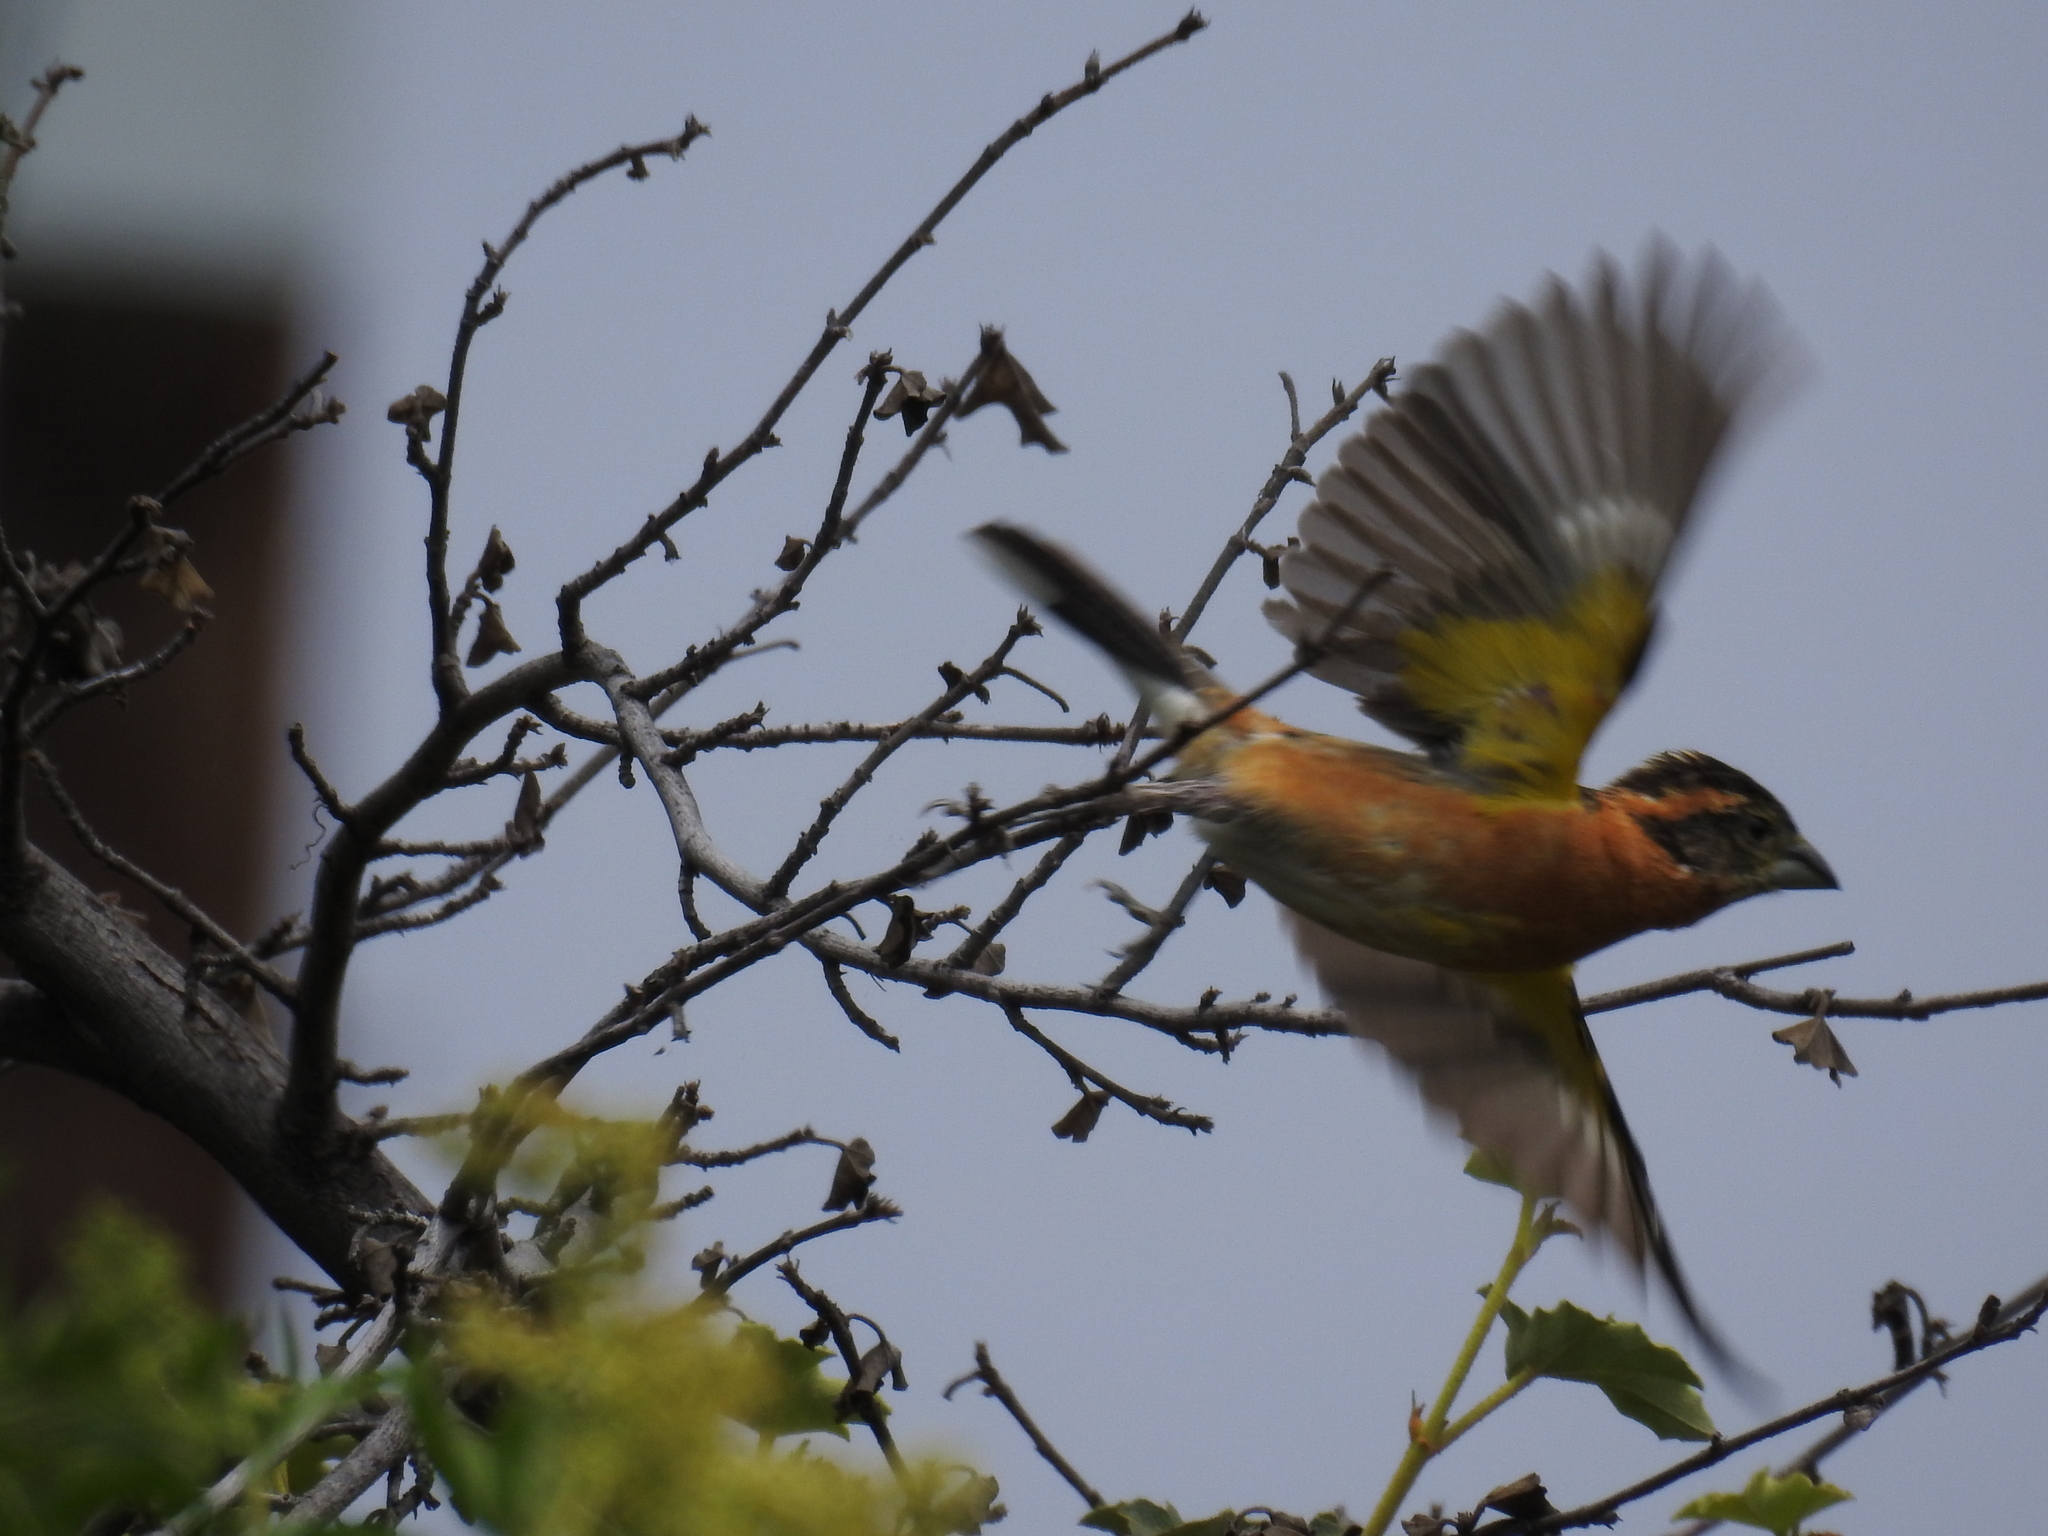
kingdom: Animalia
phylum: Chordata
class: Aves
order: Passeriformes
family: Cardinalidae
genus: Pheucticus
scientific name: Pheucticus melanocephalus
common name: Black-headed grosbeak
